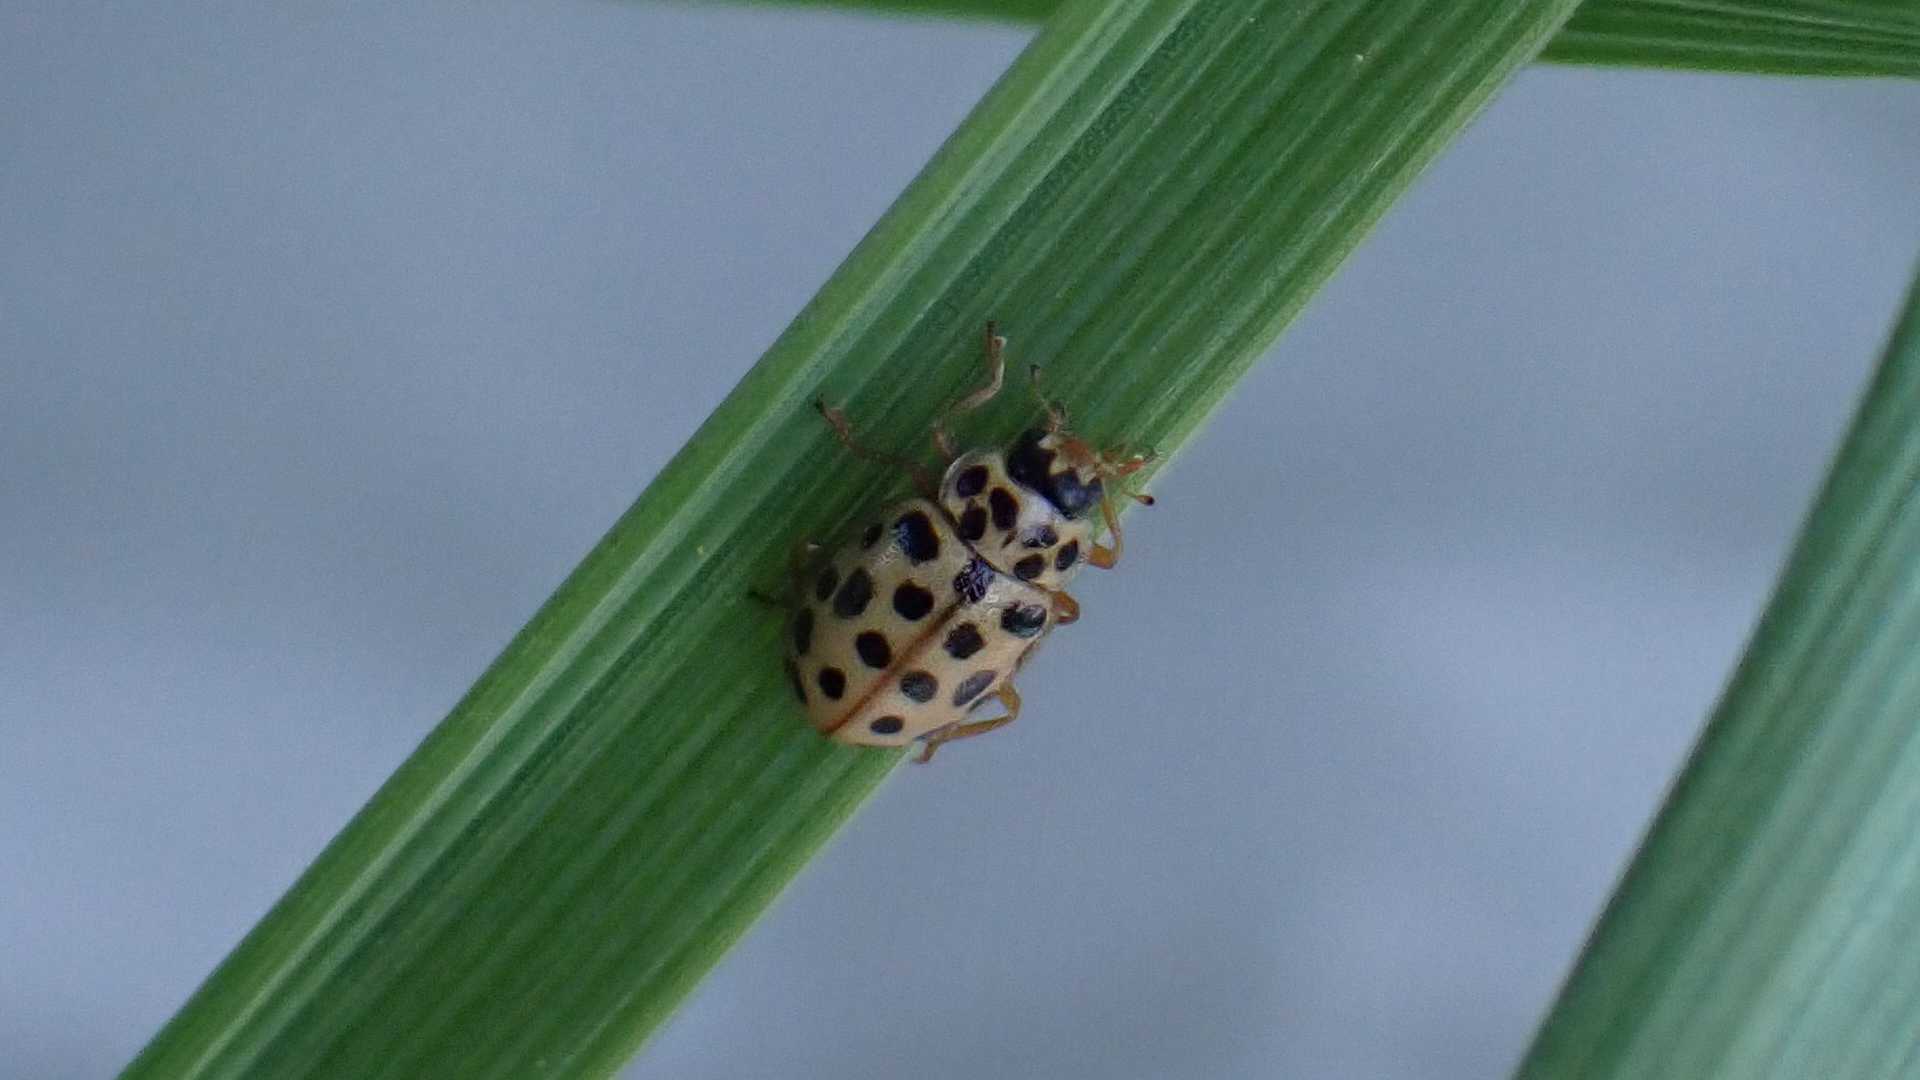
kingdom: Animalia
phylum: Arthropoda
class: Insecta
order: Coleoptera
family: Coccinellidae
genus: Anisosticta
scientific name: Anisosticta novemdecimpunctata
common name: Water ladybird
